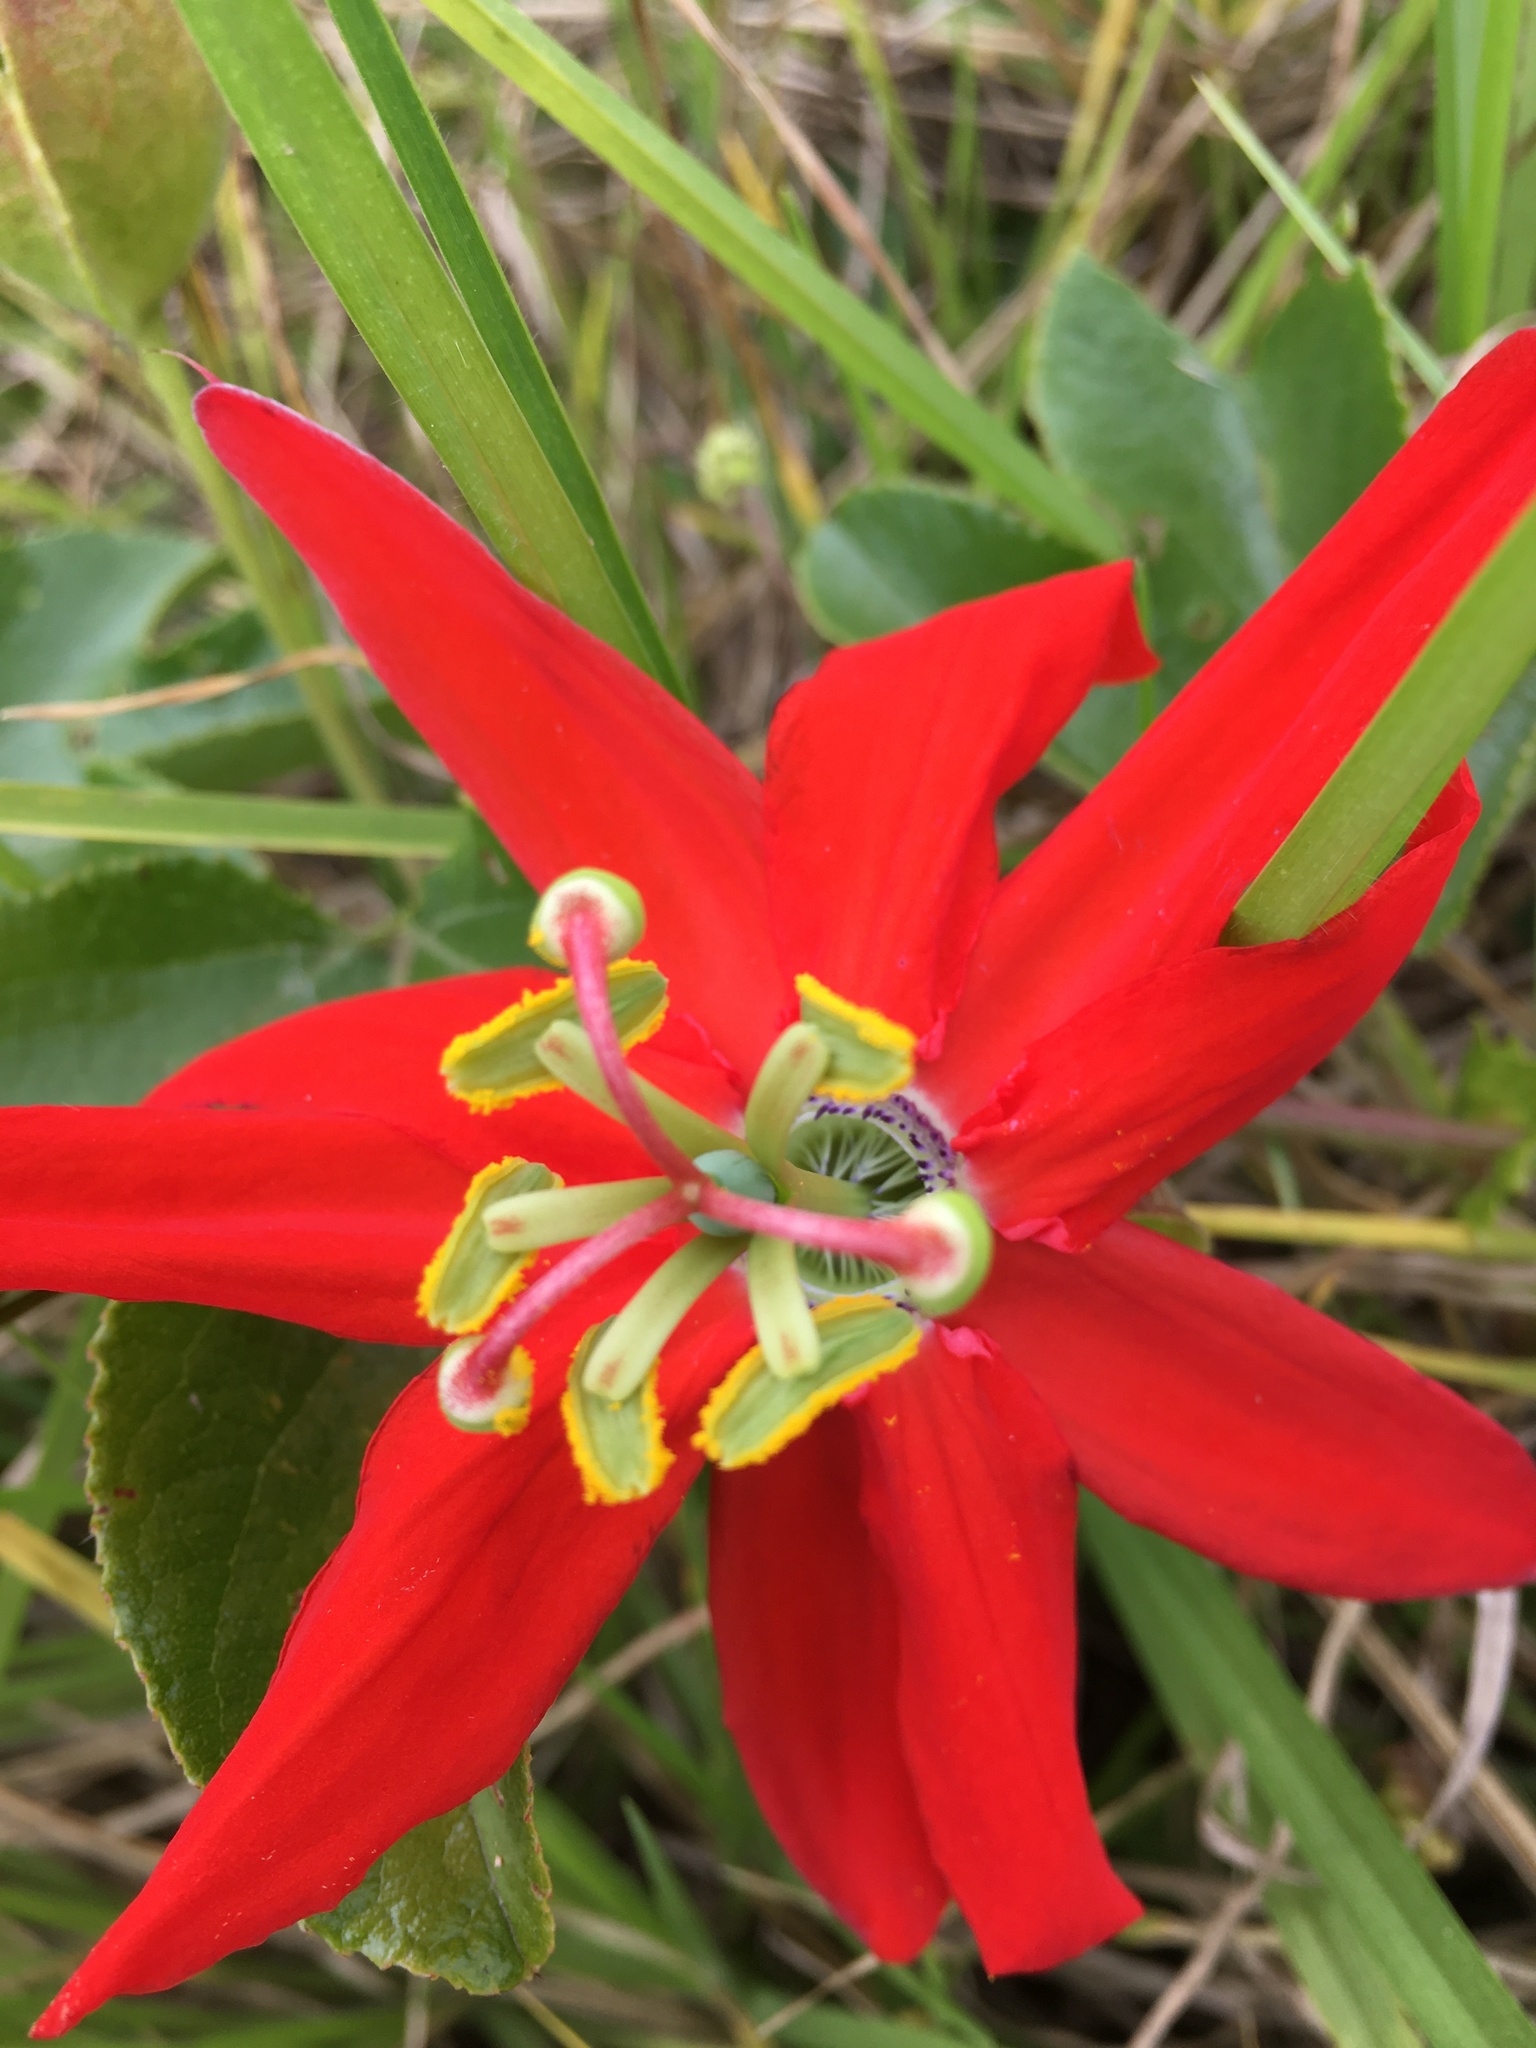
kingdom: Plantae
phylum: Tracheophyta
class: Magnoliopsida
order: Malpighiales
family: Passifloraceae
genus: Passiflora
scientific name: Passiflora manicata
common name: Red passionflower
